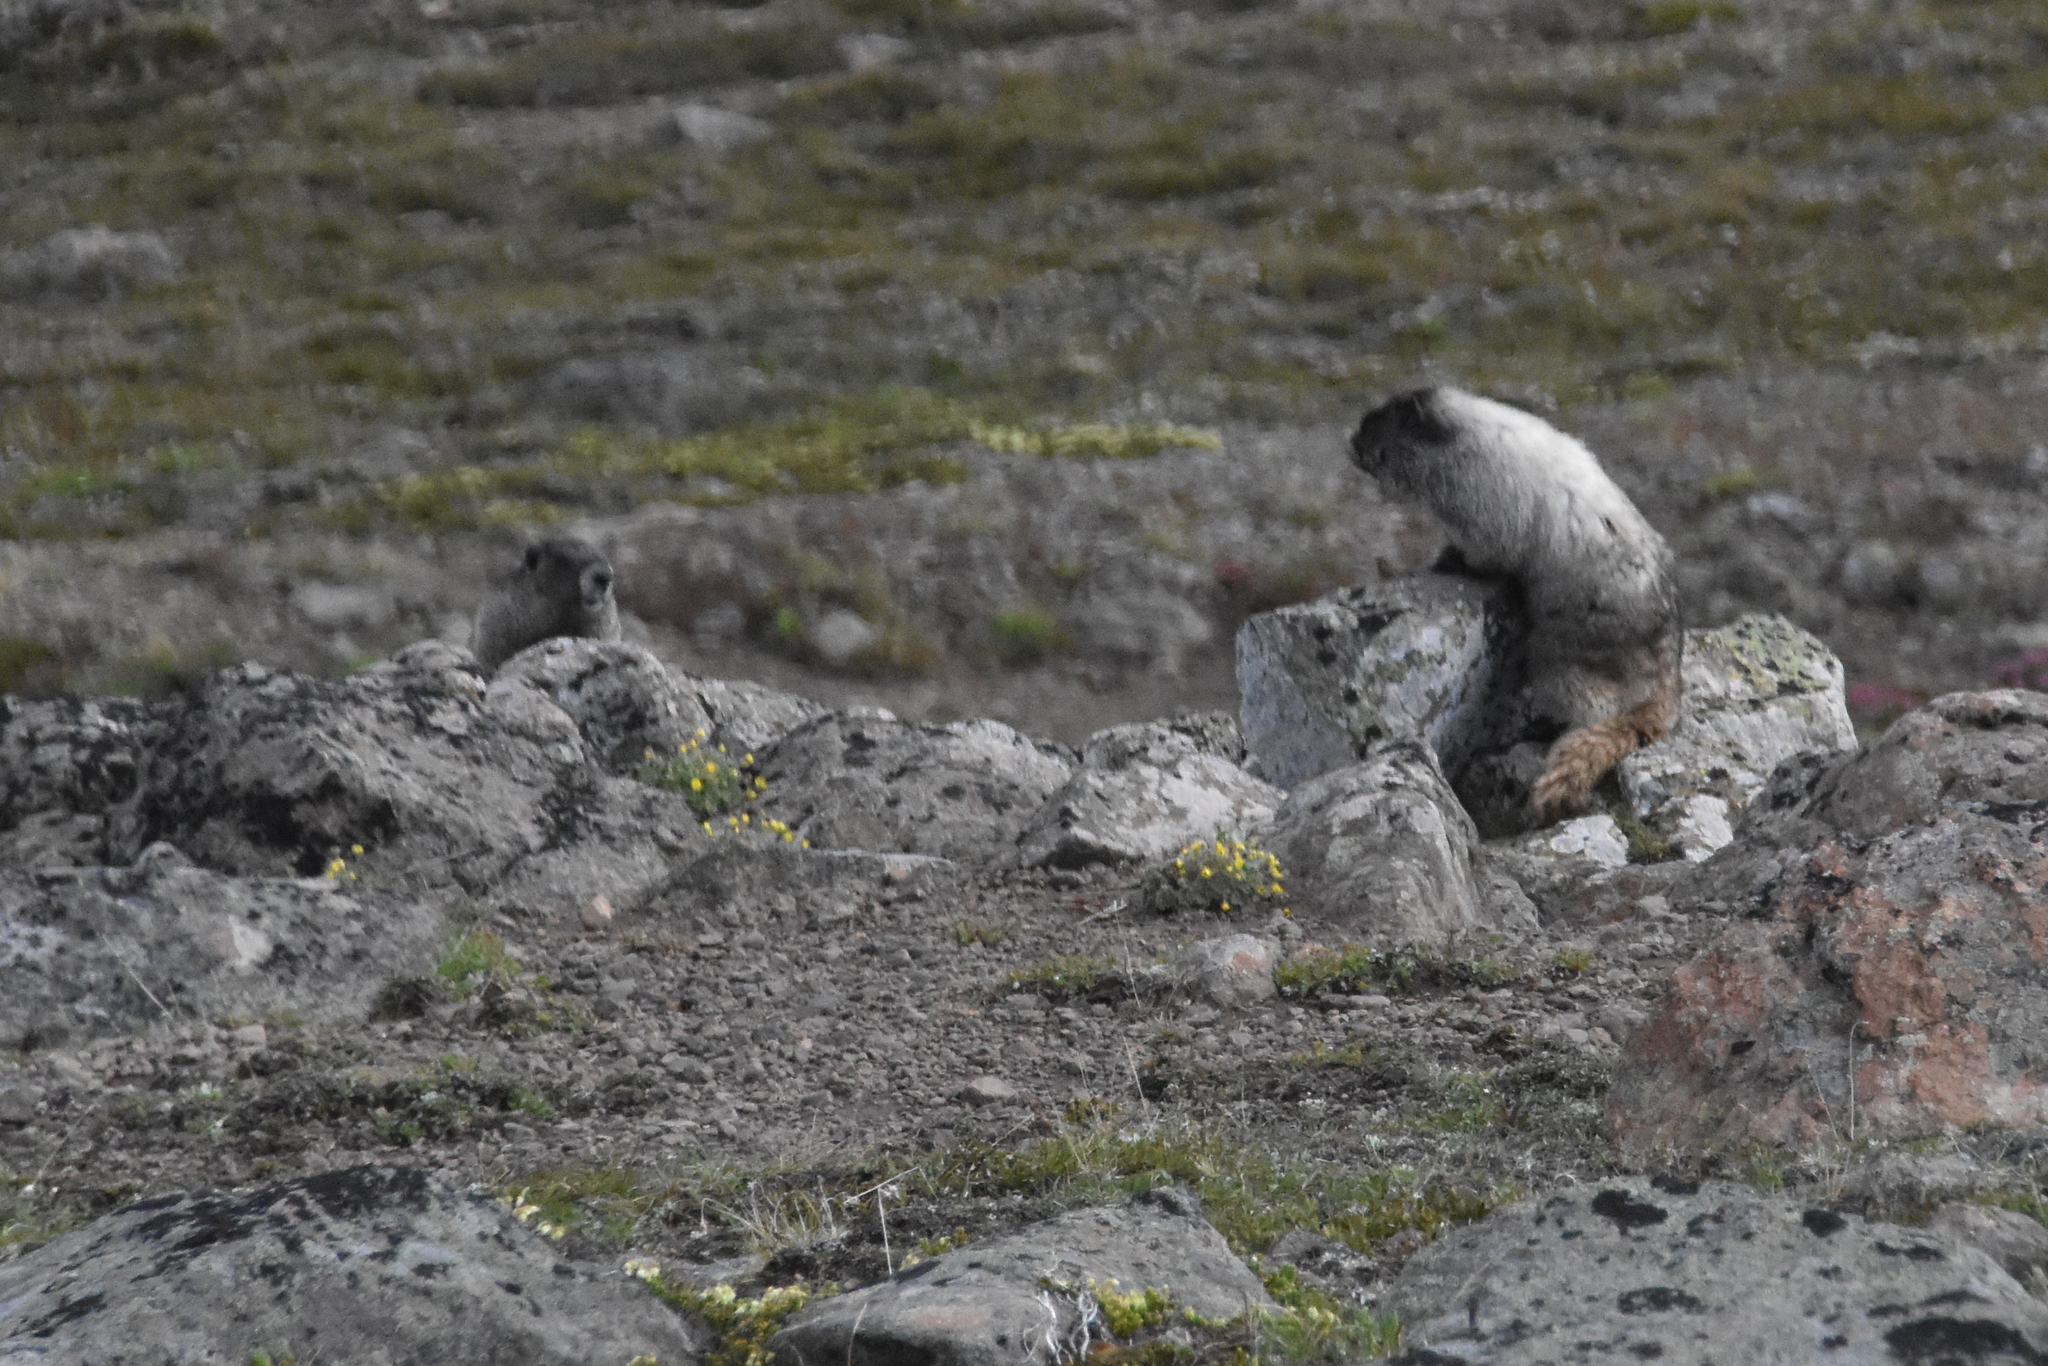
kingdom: Animalia
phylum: Chordata
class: Mammalia
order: Rodentia
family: Sciuridae
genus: Marmota
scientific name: Marmota caligata
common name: Hoary marmot
